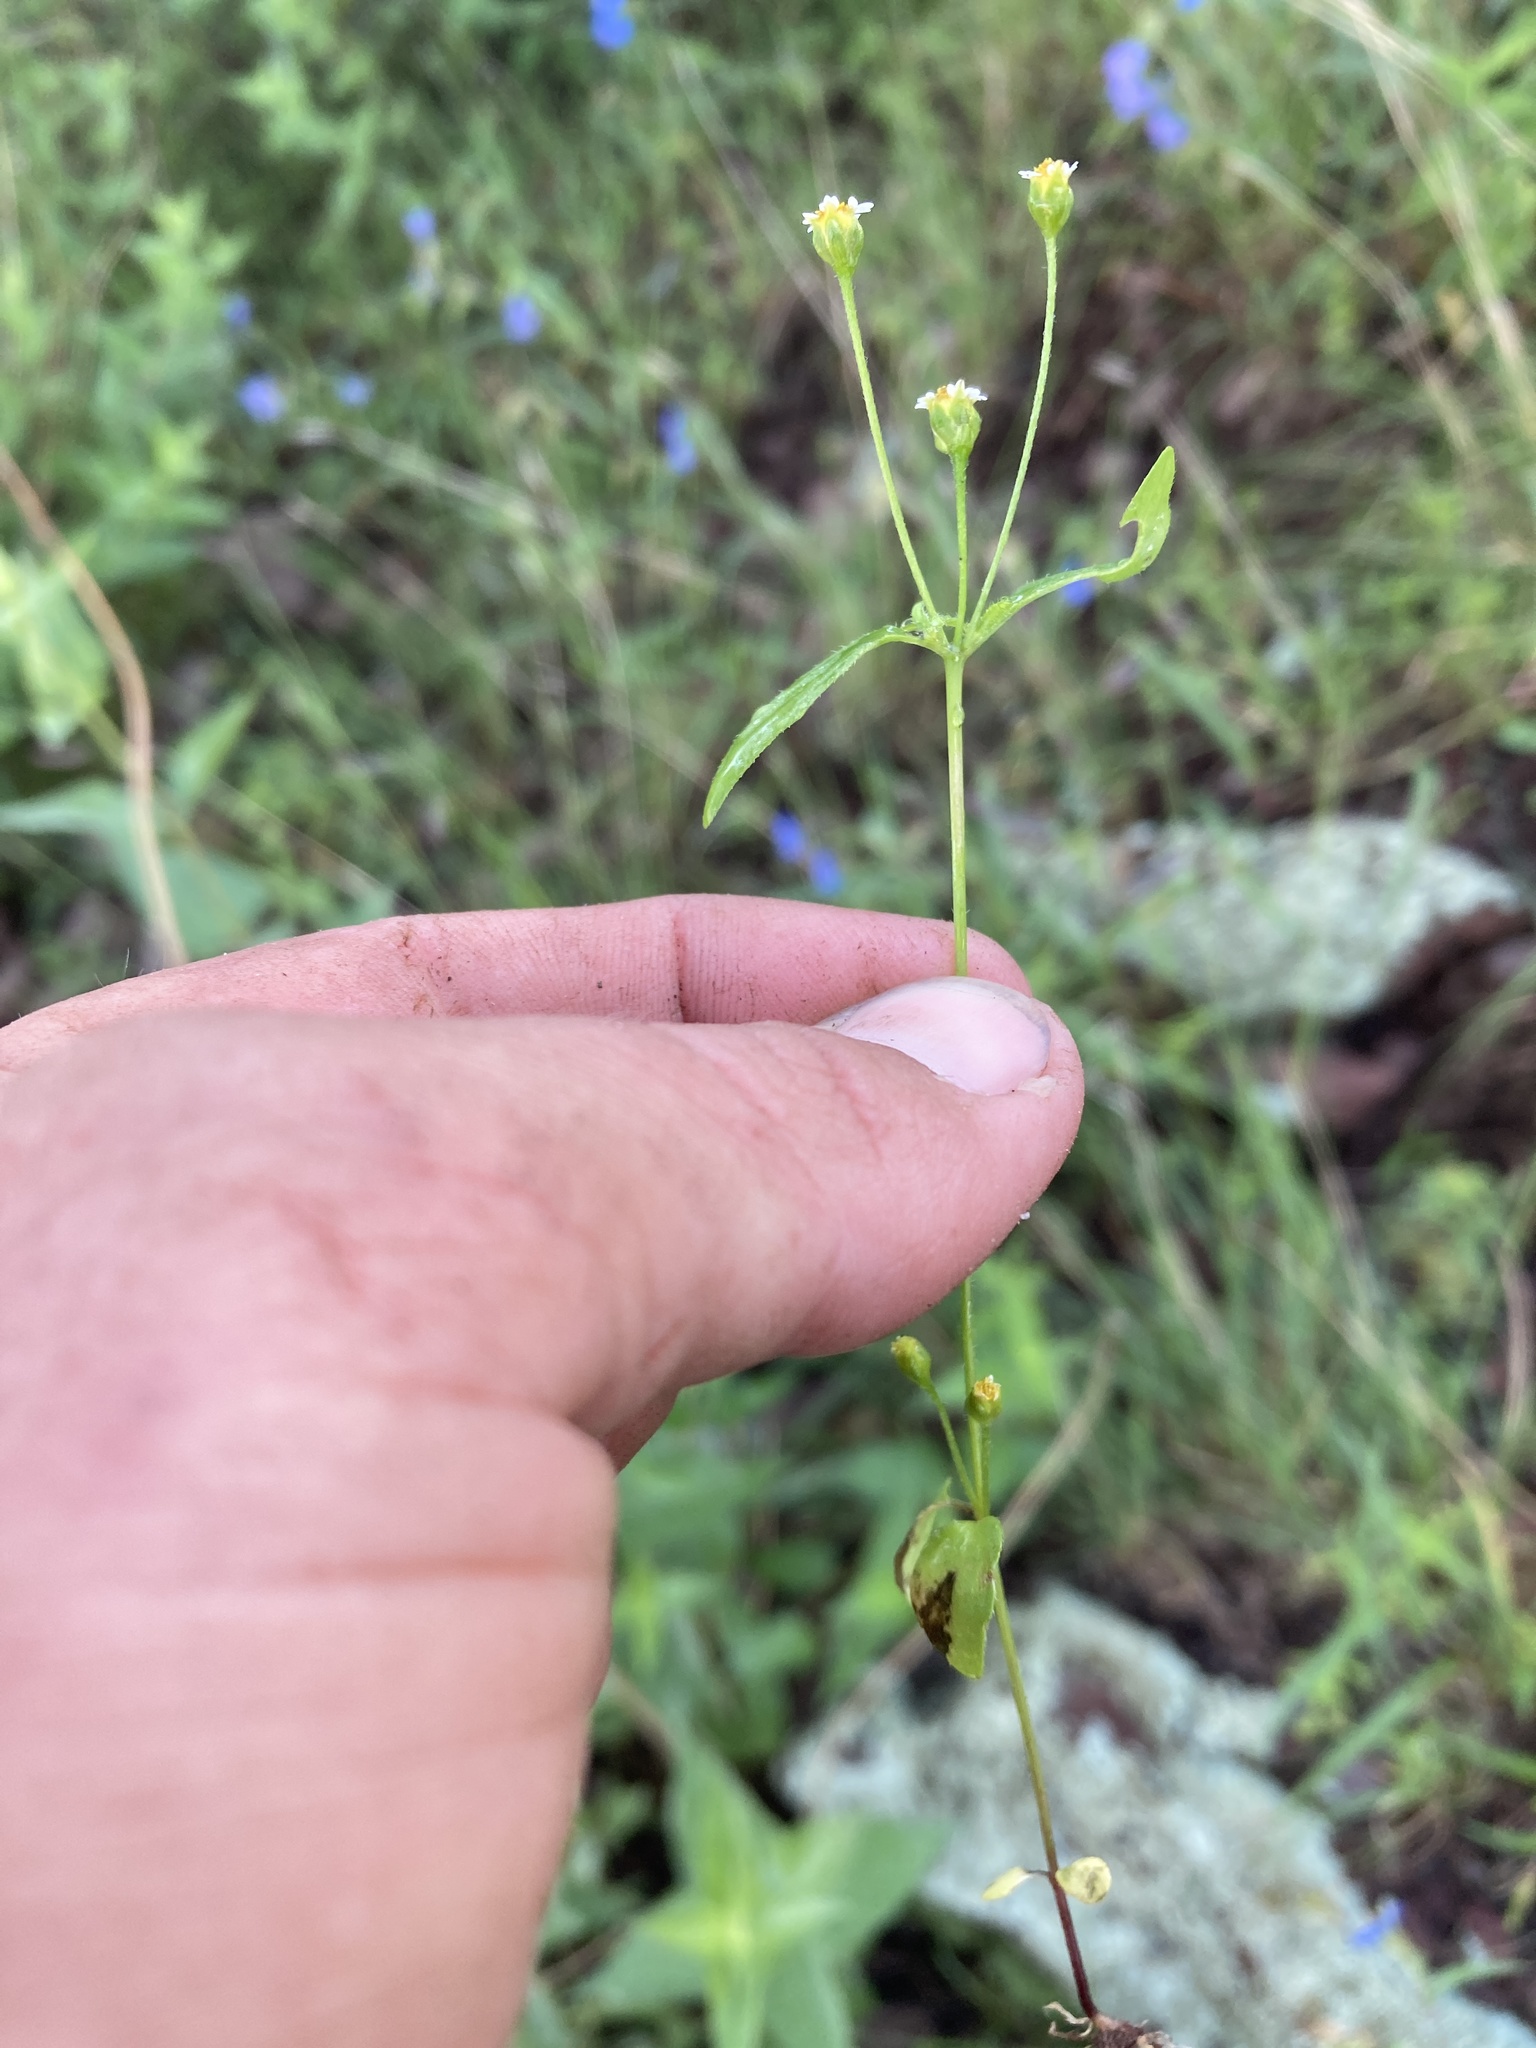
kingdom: Plantae
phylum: Tracheophyta
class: Magnoliopsida
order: Asterales
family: Asteraceae
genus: Galinsoga
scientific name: Galinsoga parviflora
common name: Gallant soldier
